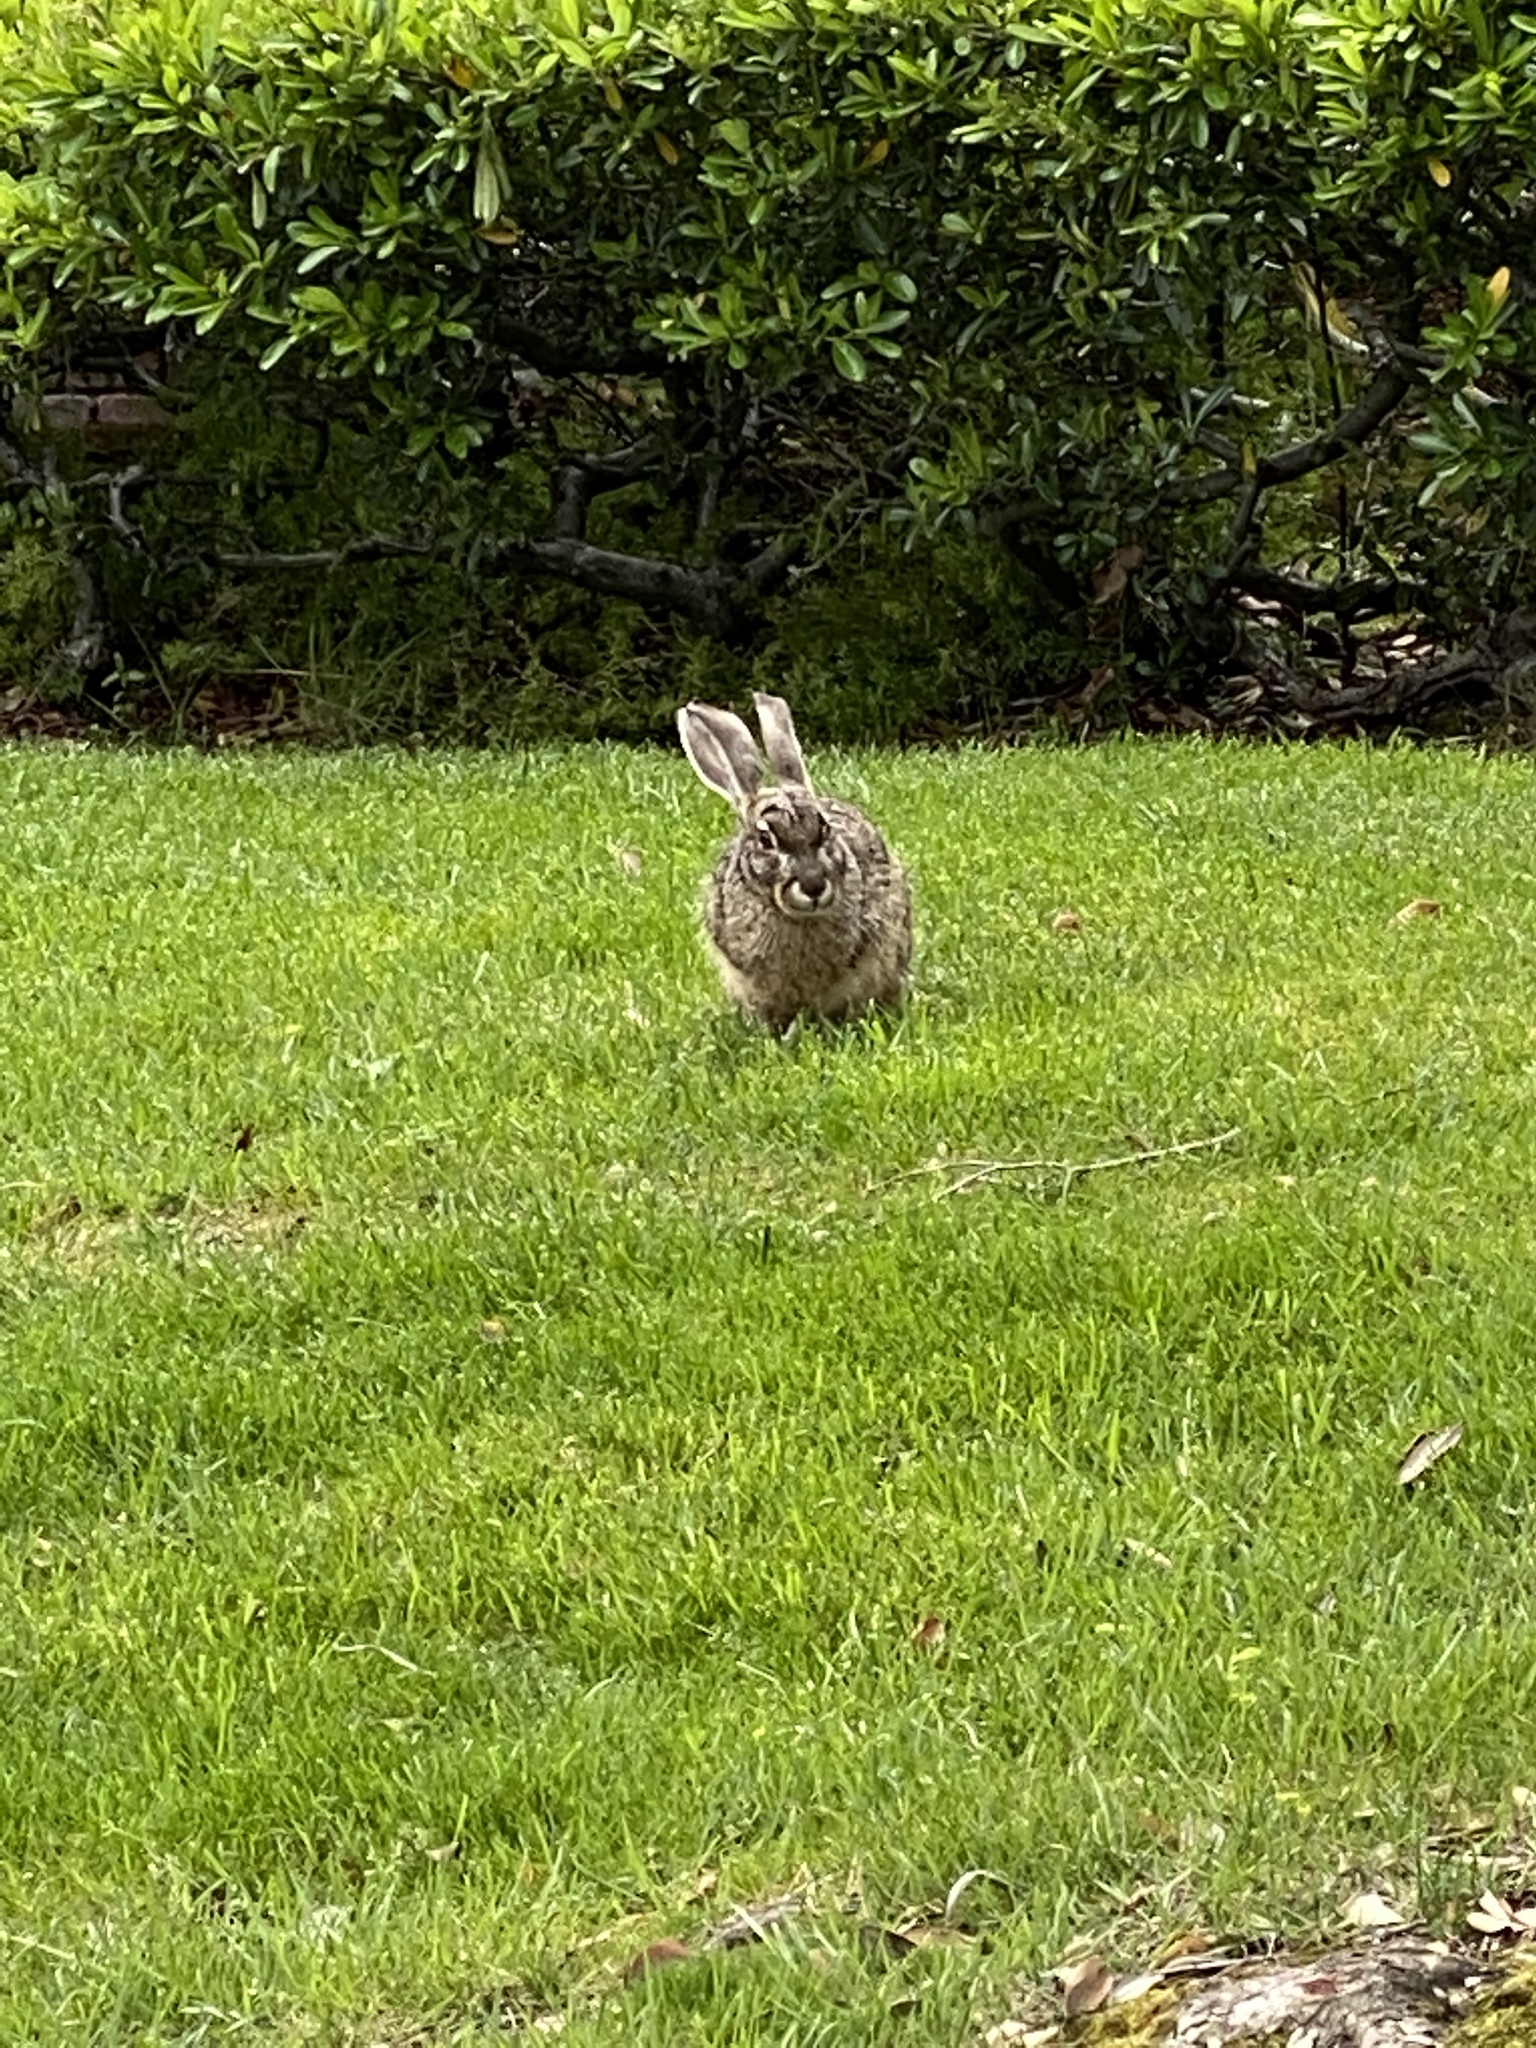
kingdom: Animalia
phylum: Chordata
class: Mammalia
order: Lagomorpha
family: Leporidae
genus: Lepus
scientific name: Lepus californicus
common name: Black-tailed jackrabbit
